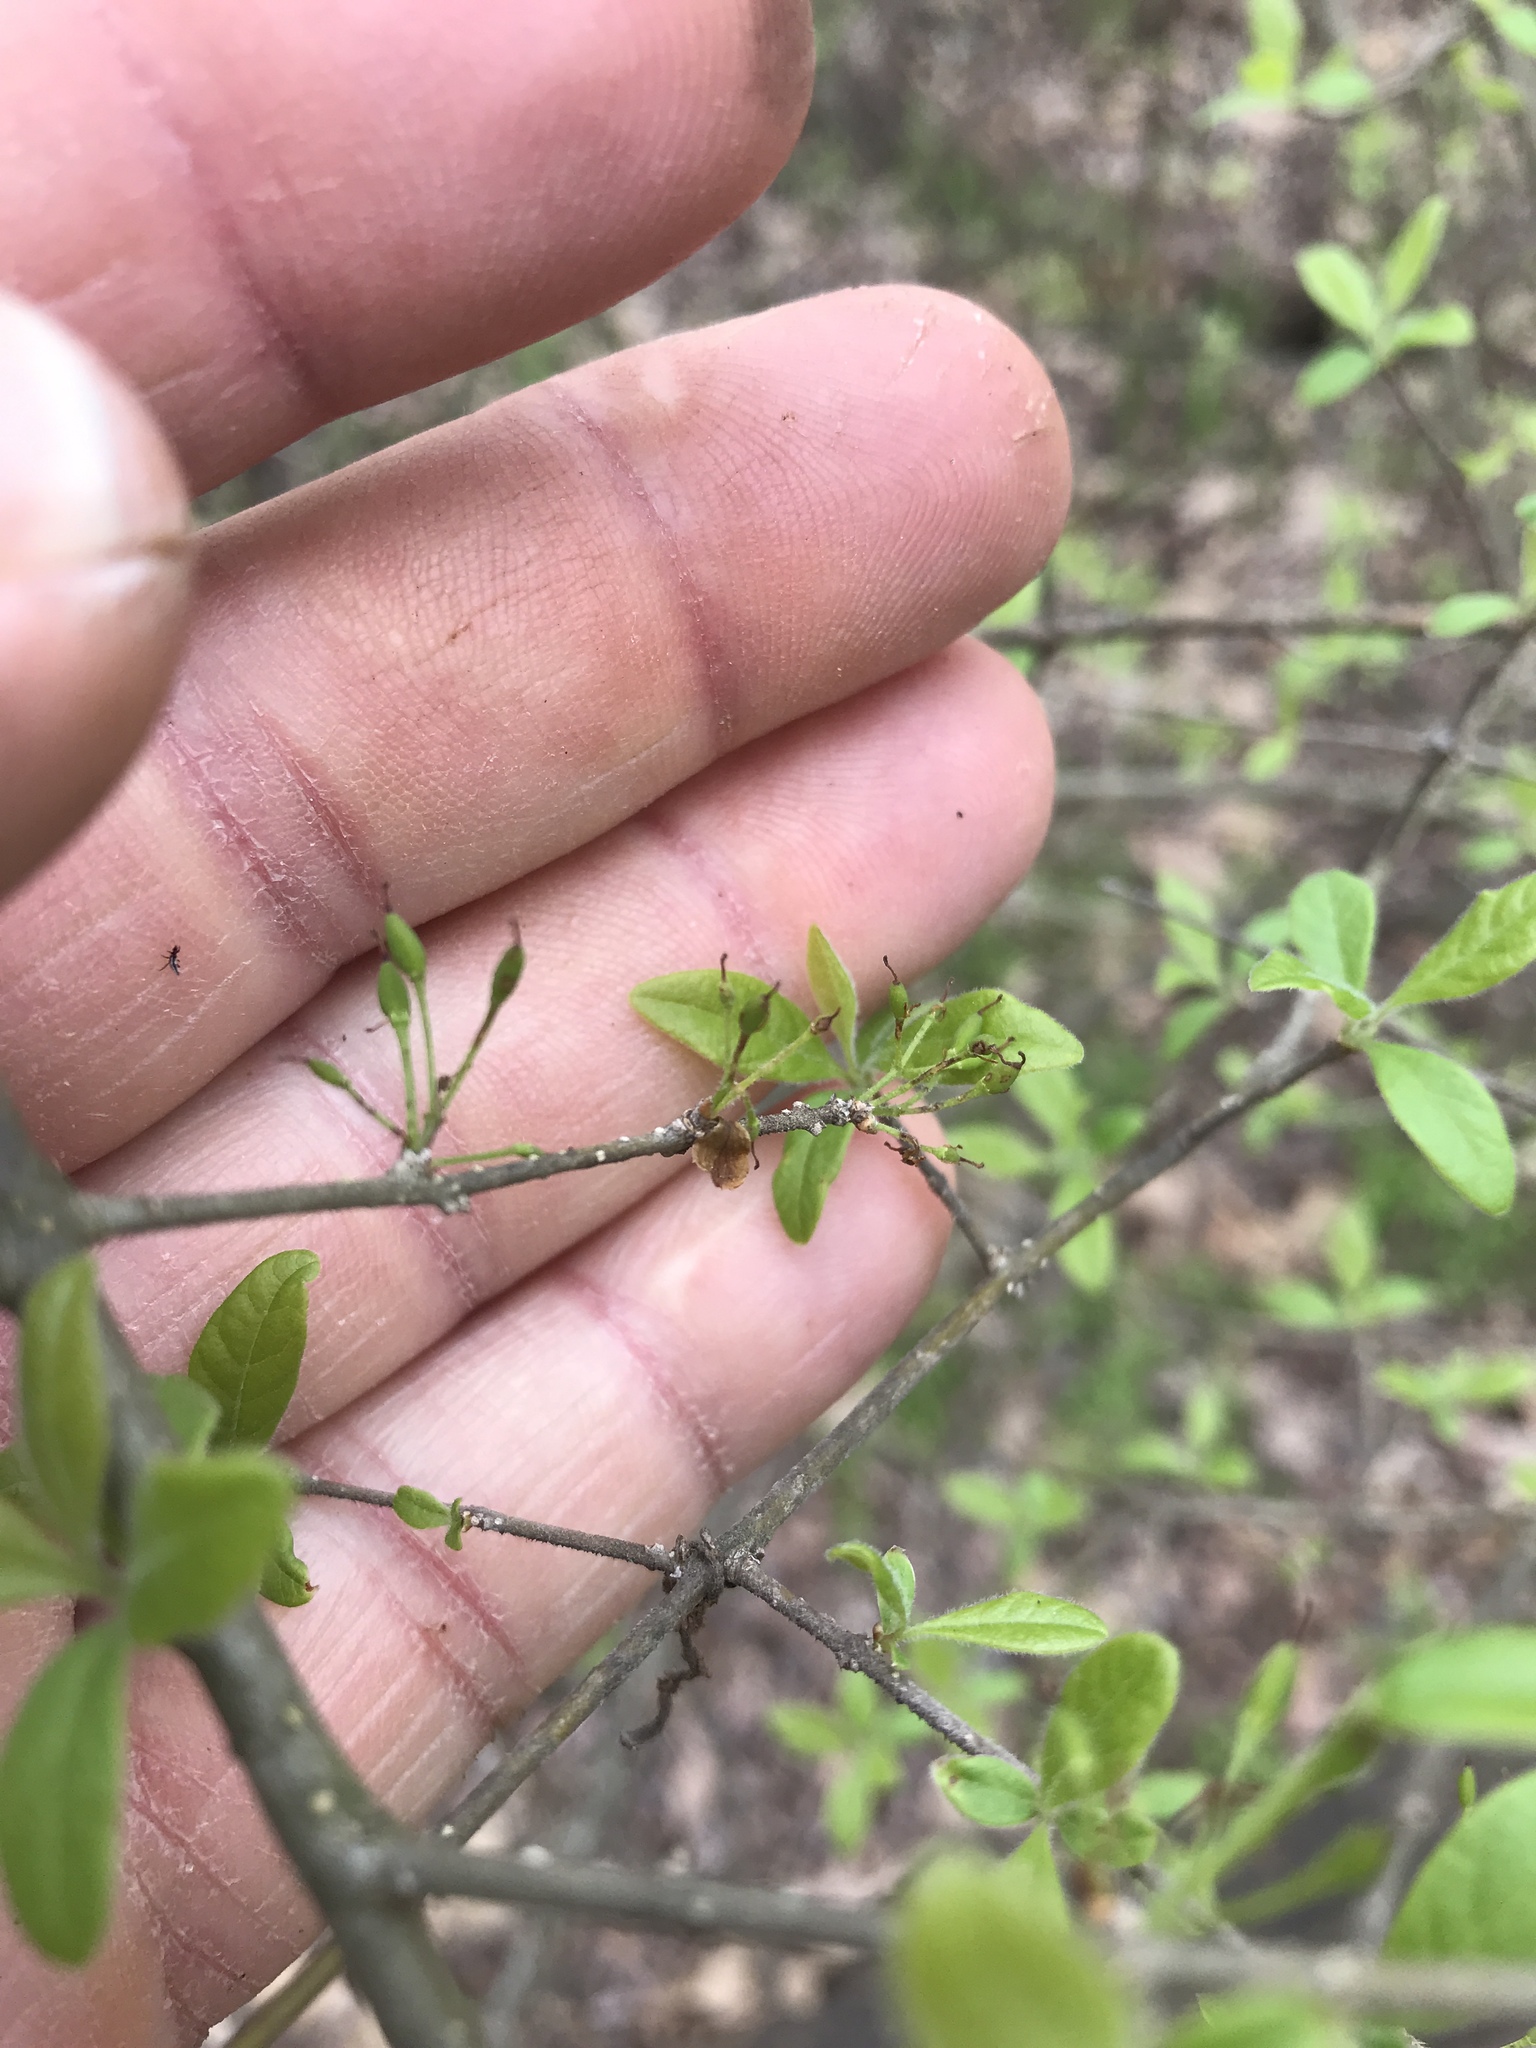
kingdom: Plantae
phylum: Tracheophyta
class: Magnoliopsida
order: Lamiales
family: Oleaceae
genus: Forestiera
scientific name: Forestiera pubescens
